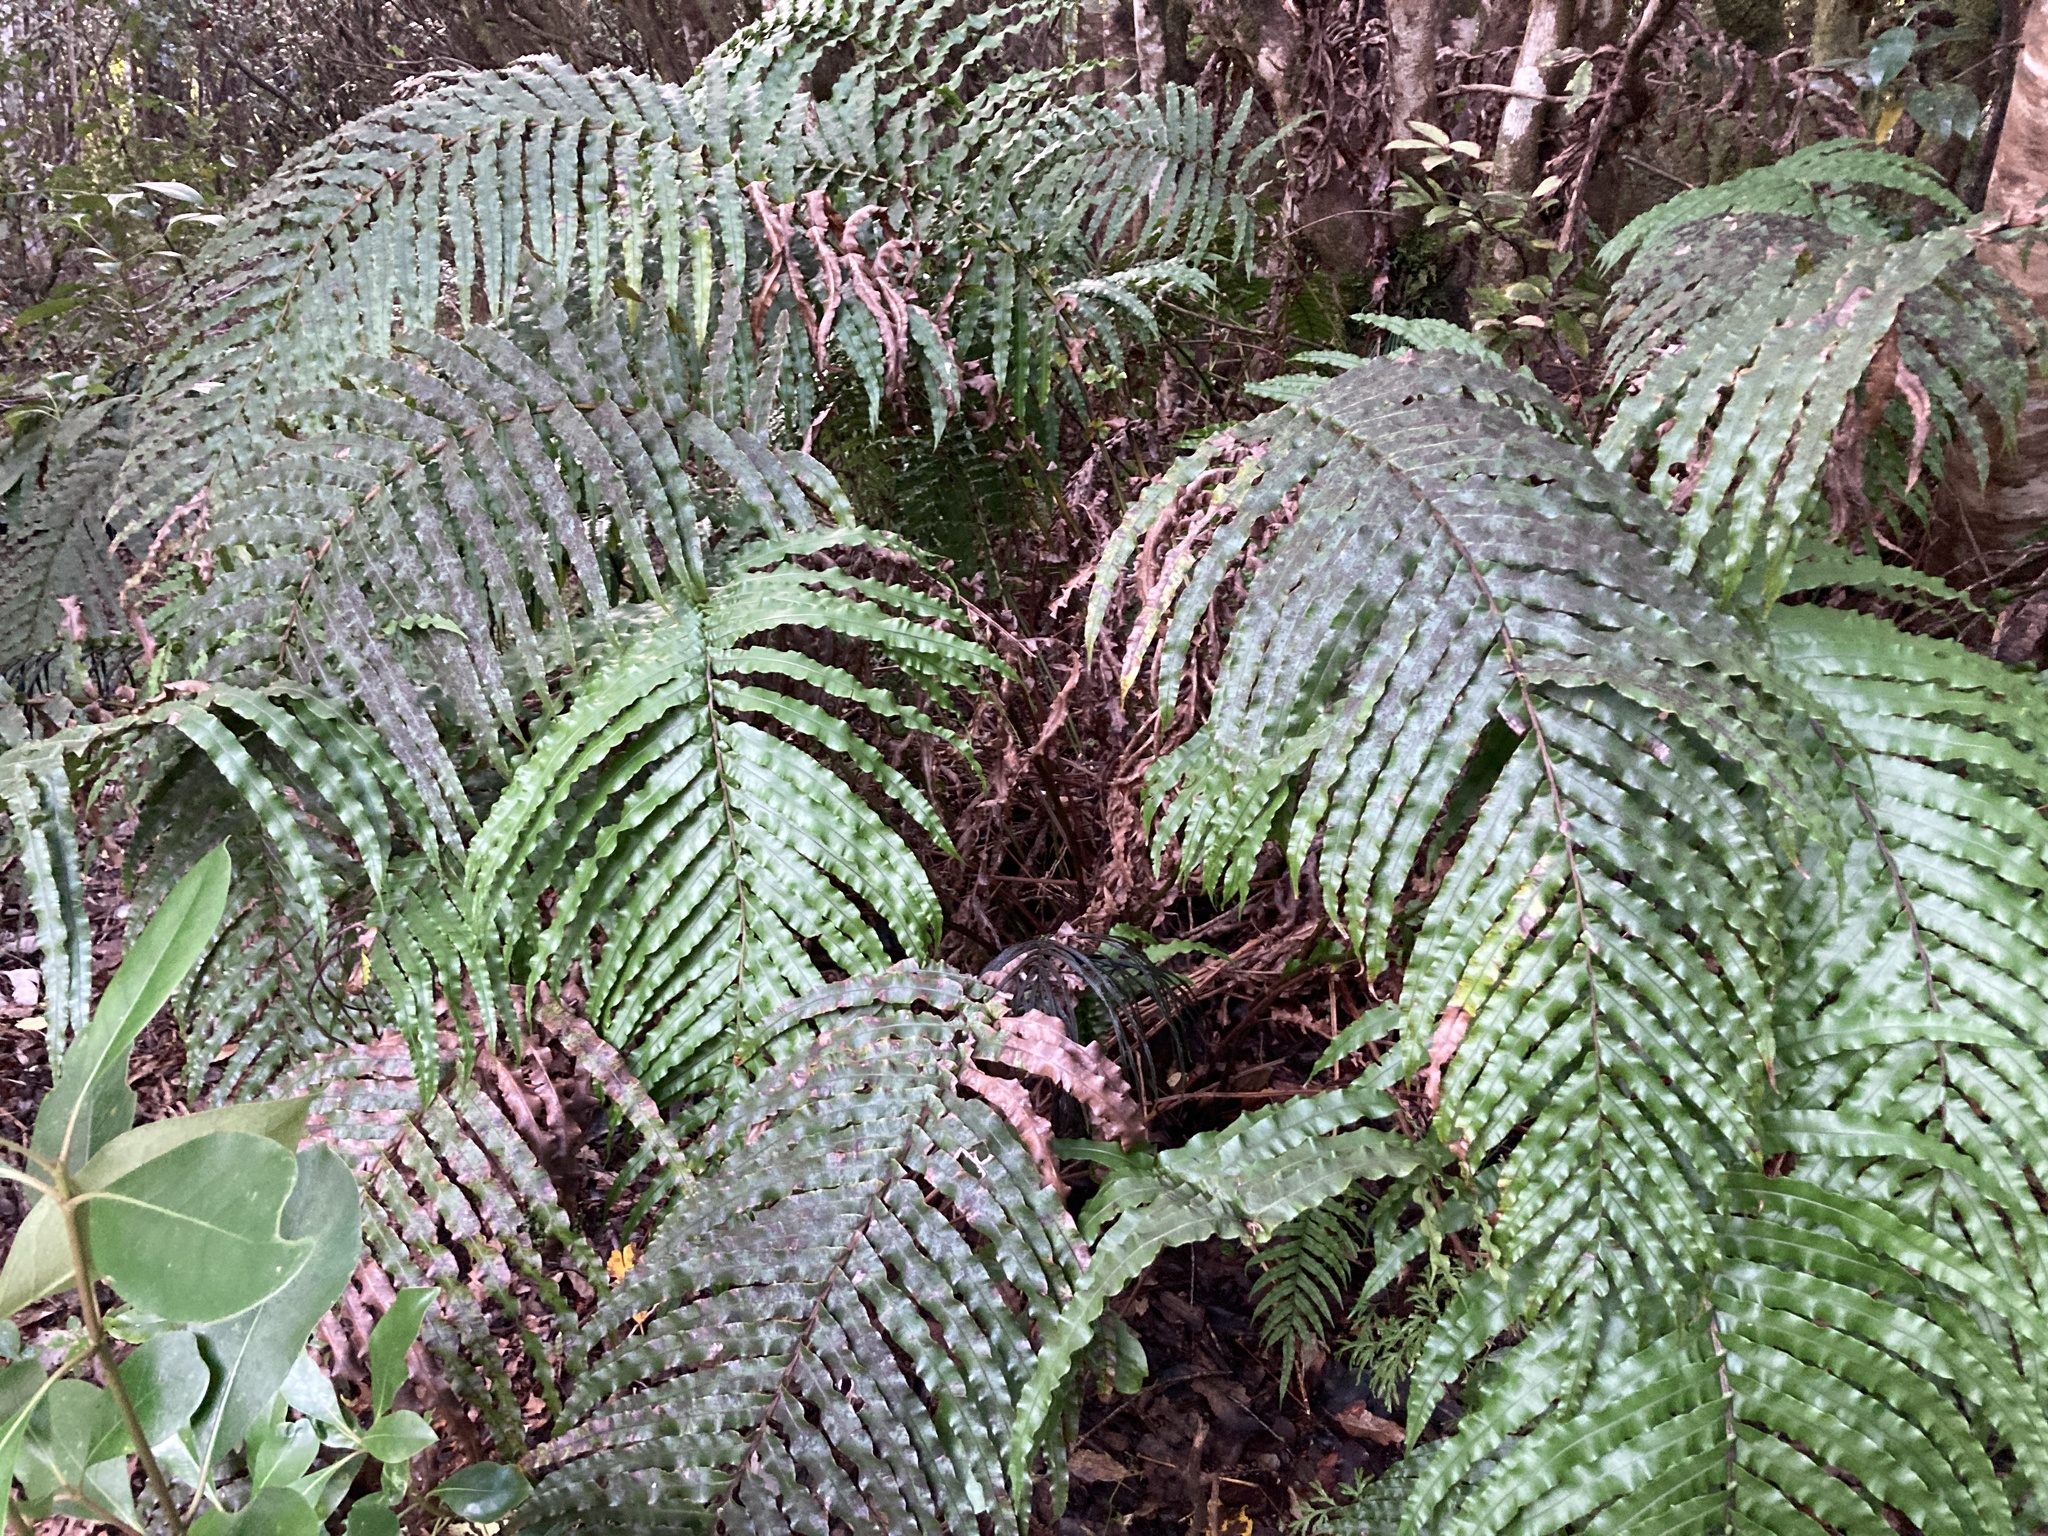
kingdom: Plantae
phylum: Tracheophyta
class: Polypodiopsida
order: Polypodiales
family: Blechnaceae
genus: Parablechnum
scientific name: Parablechnum novae-zelandiae
